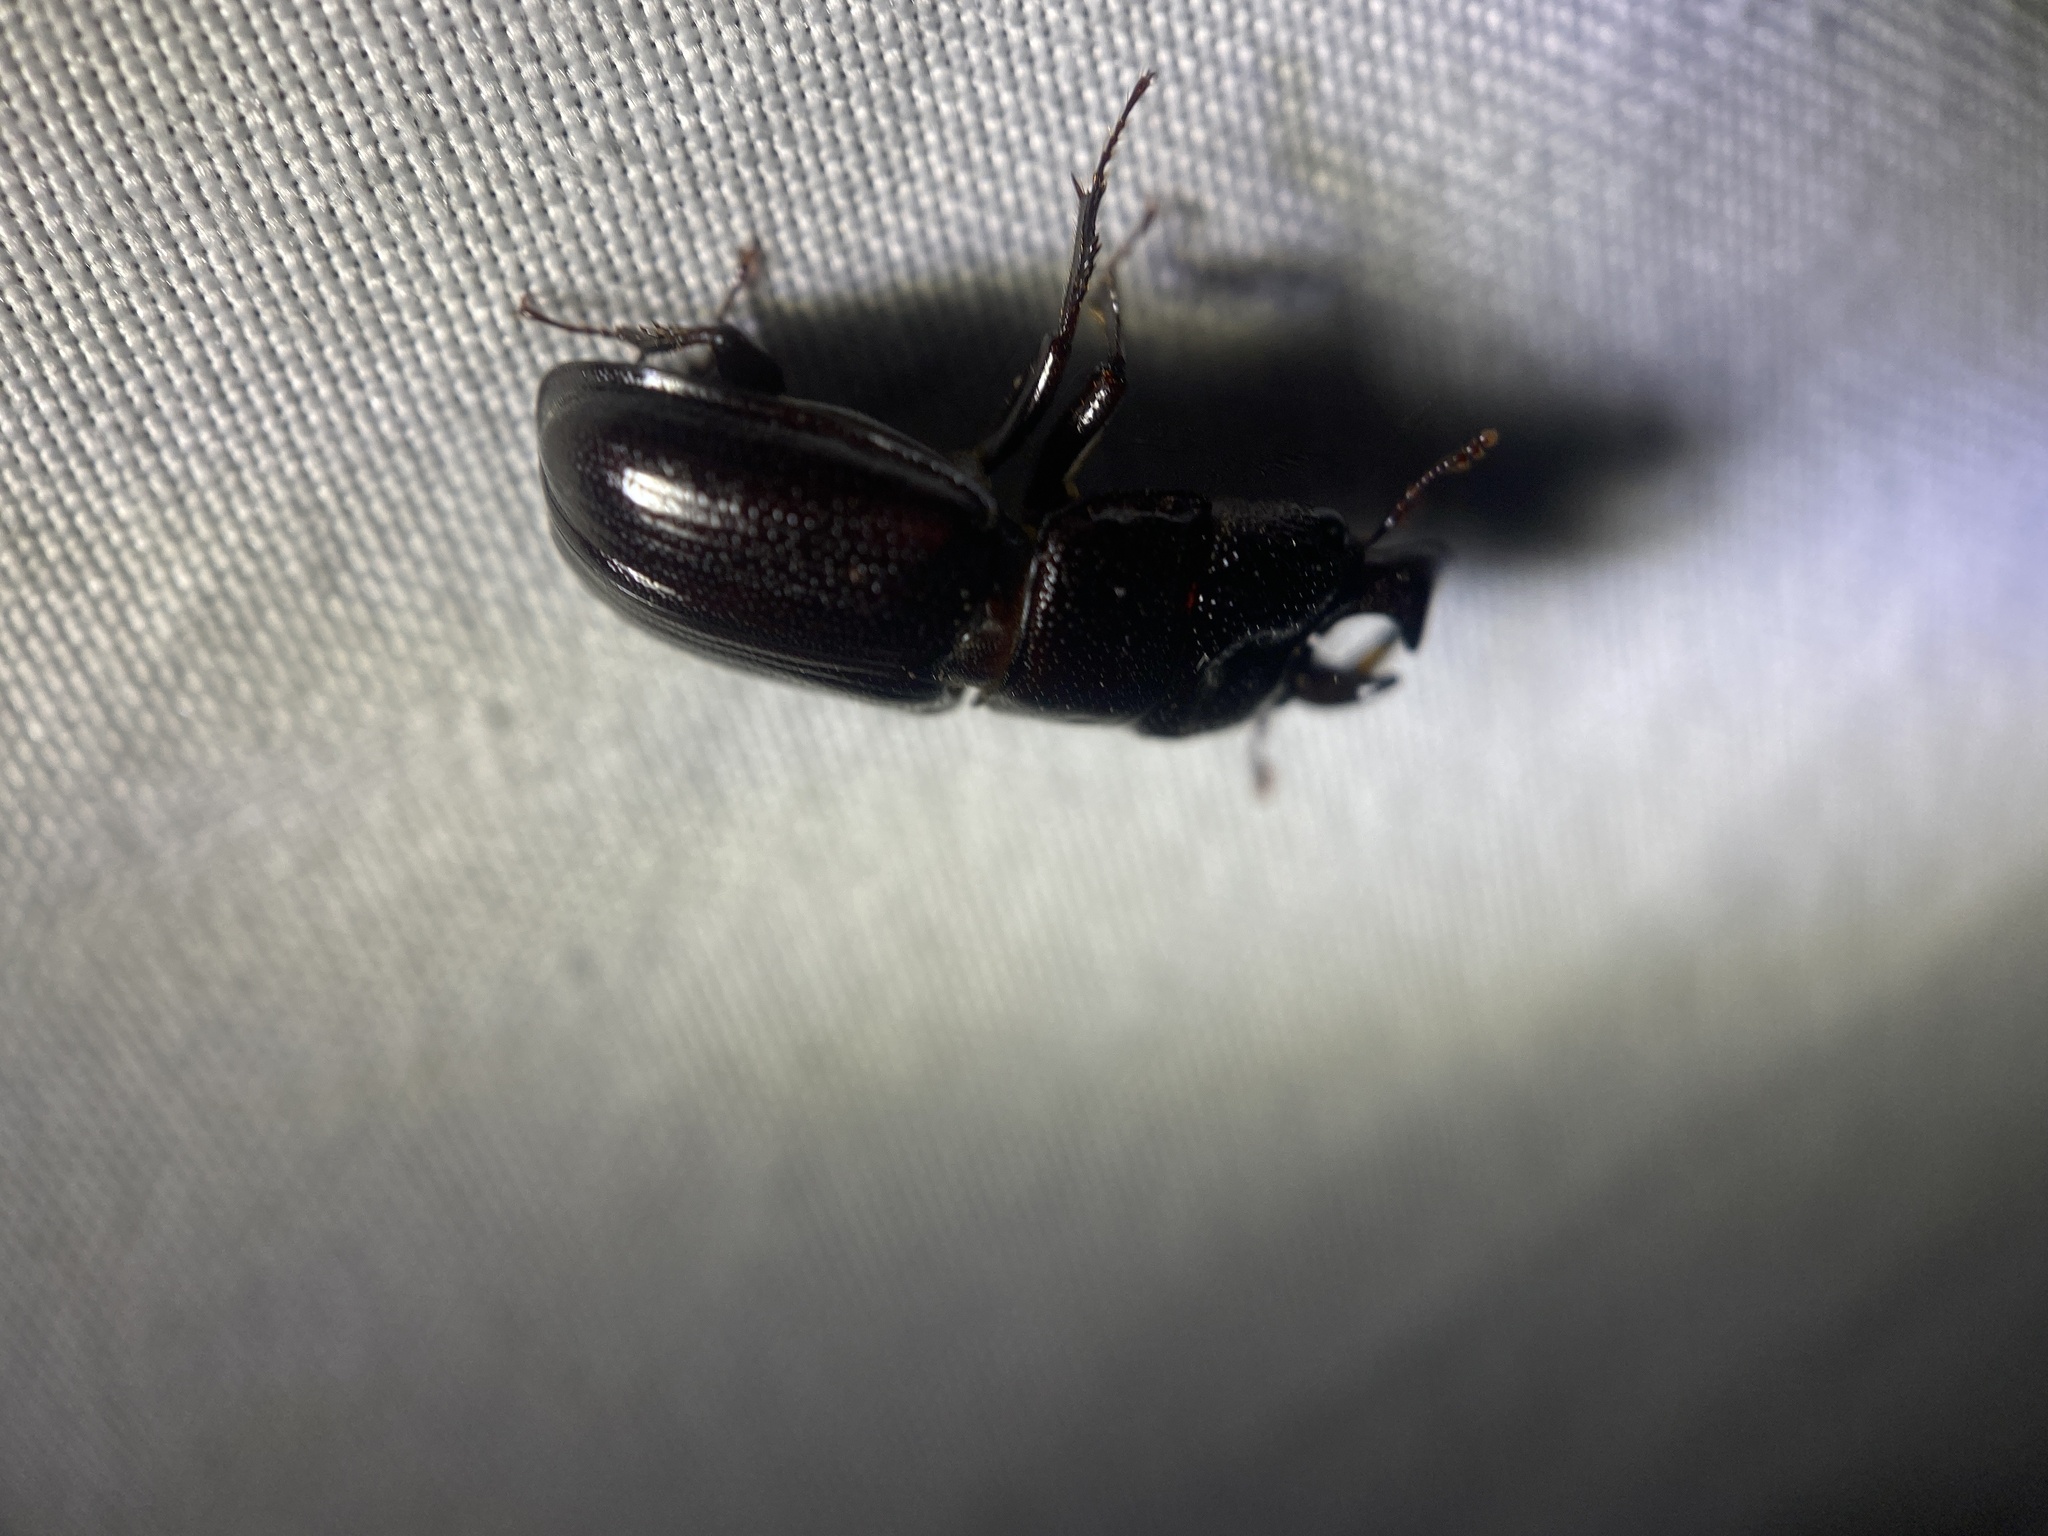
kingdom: Animalia
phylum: Arthropoda
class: Insecta
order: Coleoptera
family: Lucanidae
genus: Ceruchus
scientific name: Ceruchus piceus
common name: Red-rot decay stag beetle
